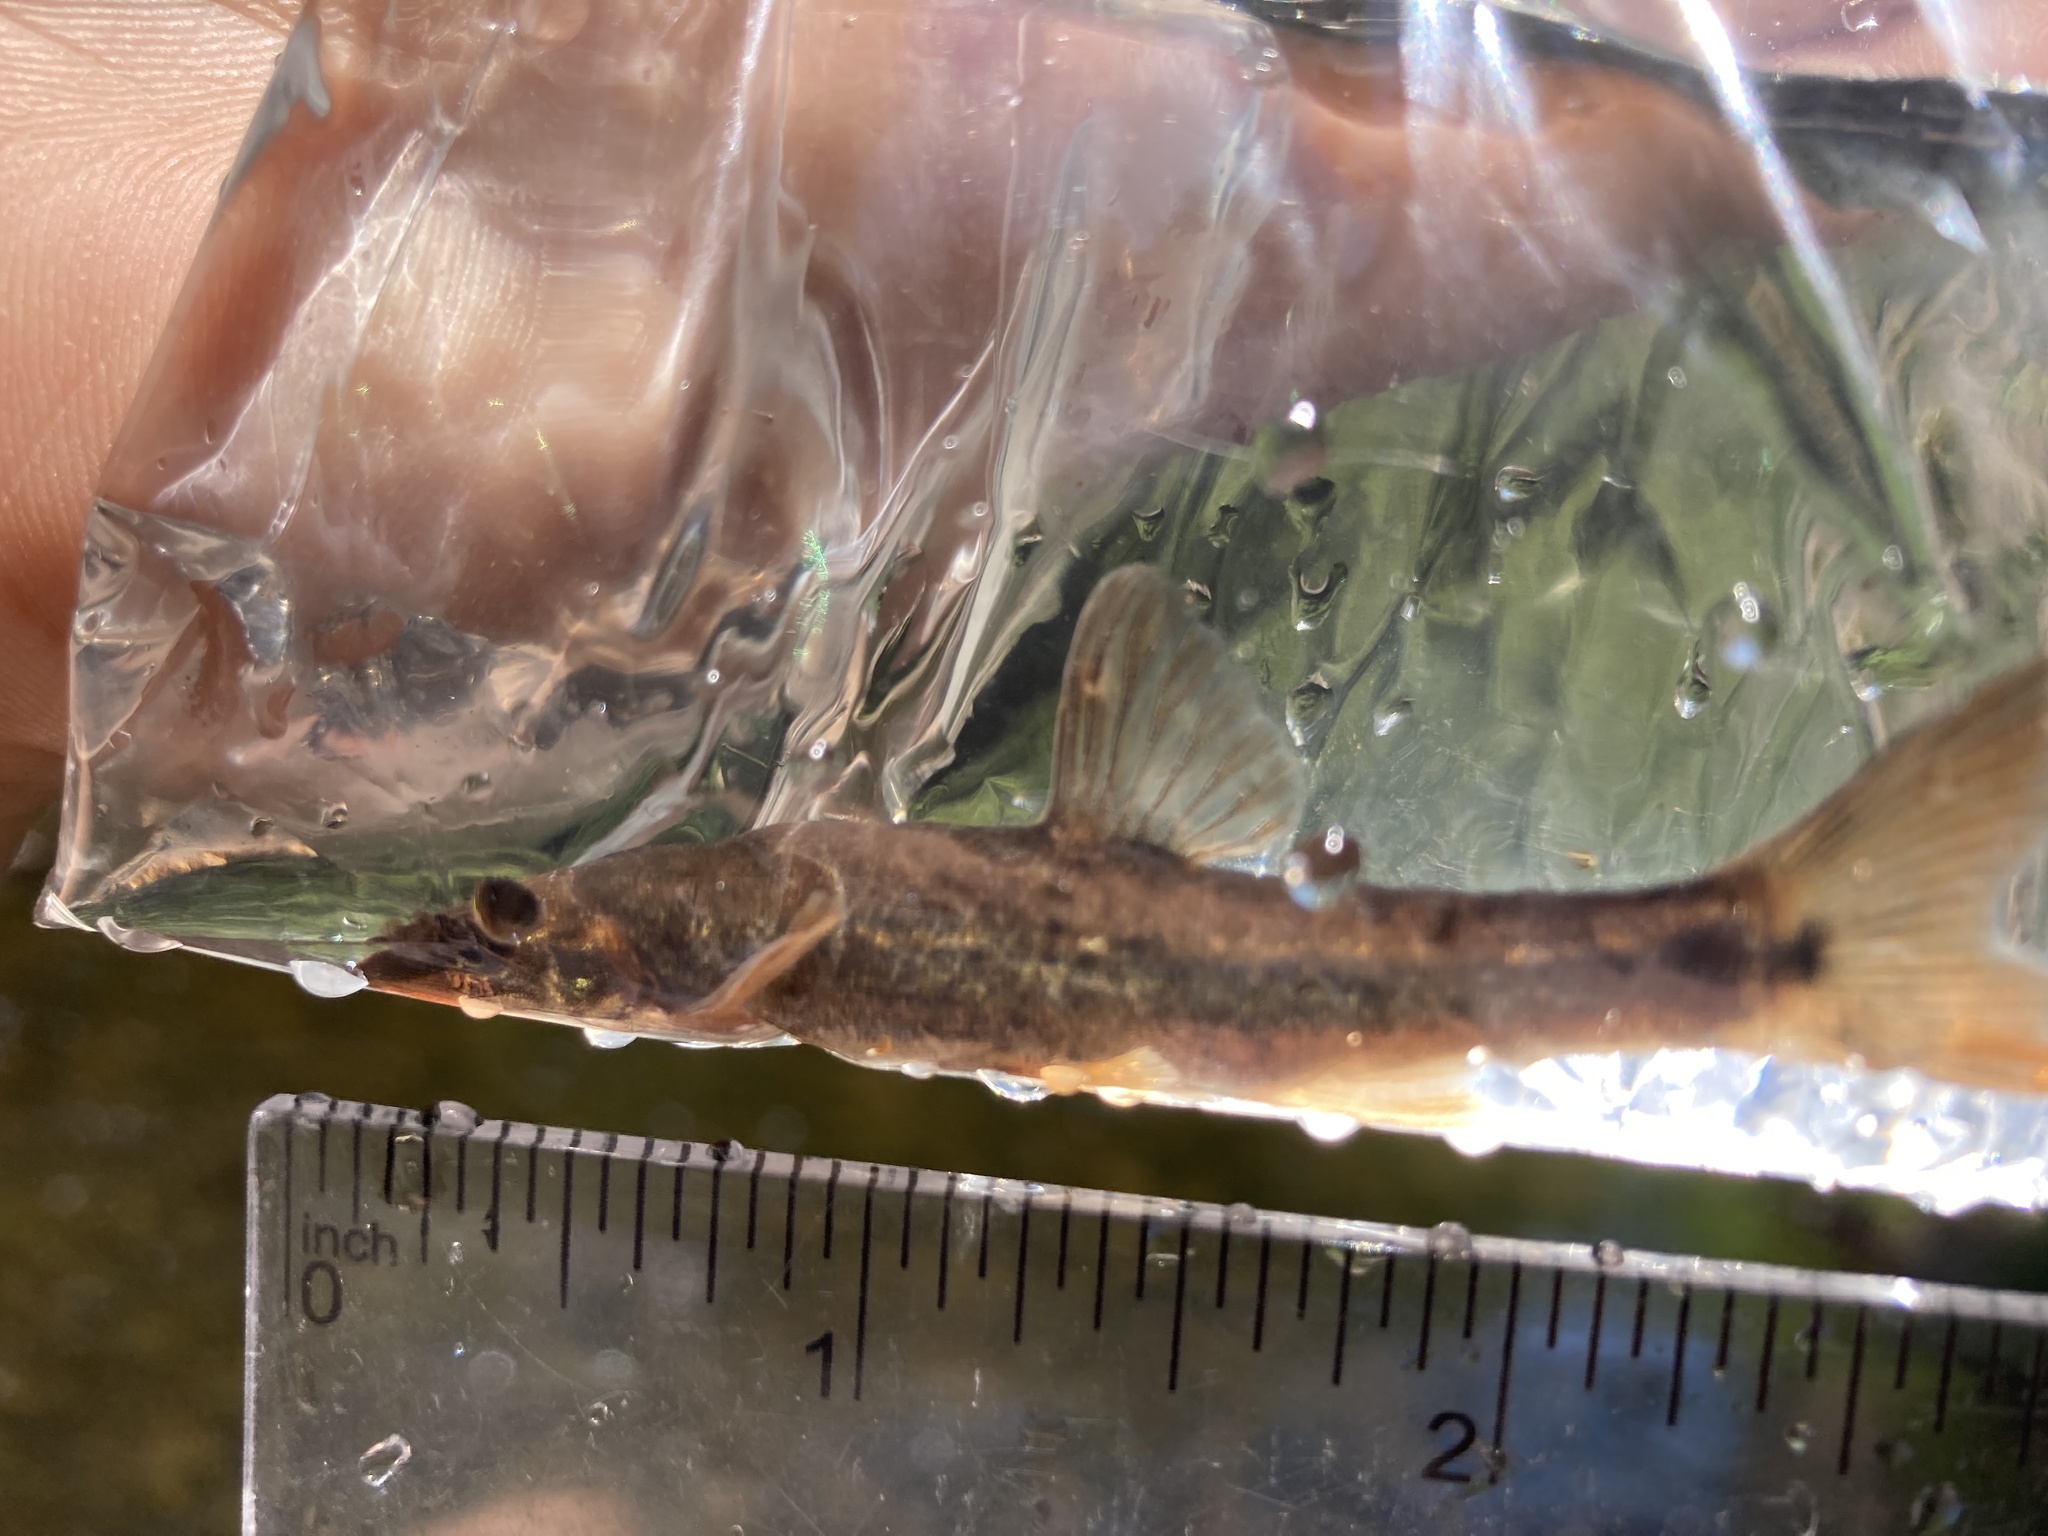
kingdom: Animalia
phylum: Chordata
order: Cypriniformes
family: Cyprinidae
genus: Rhinichthys
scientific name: Rhinichthys cataractae
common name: Longnose dace
